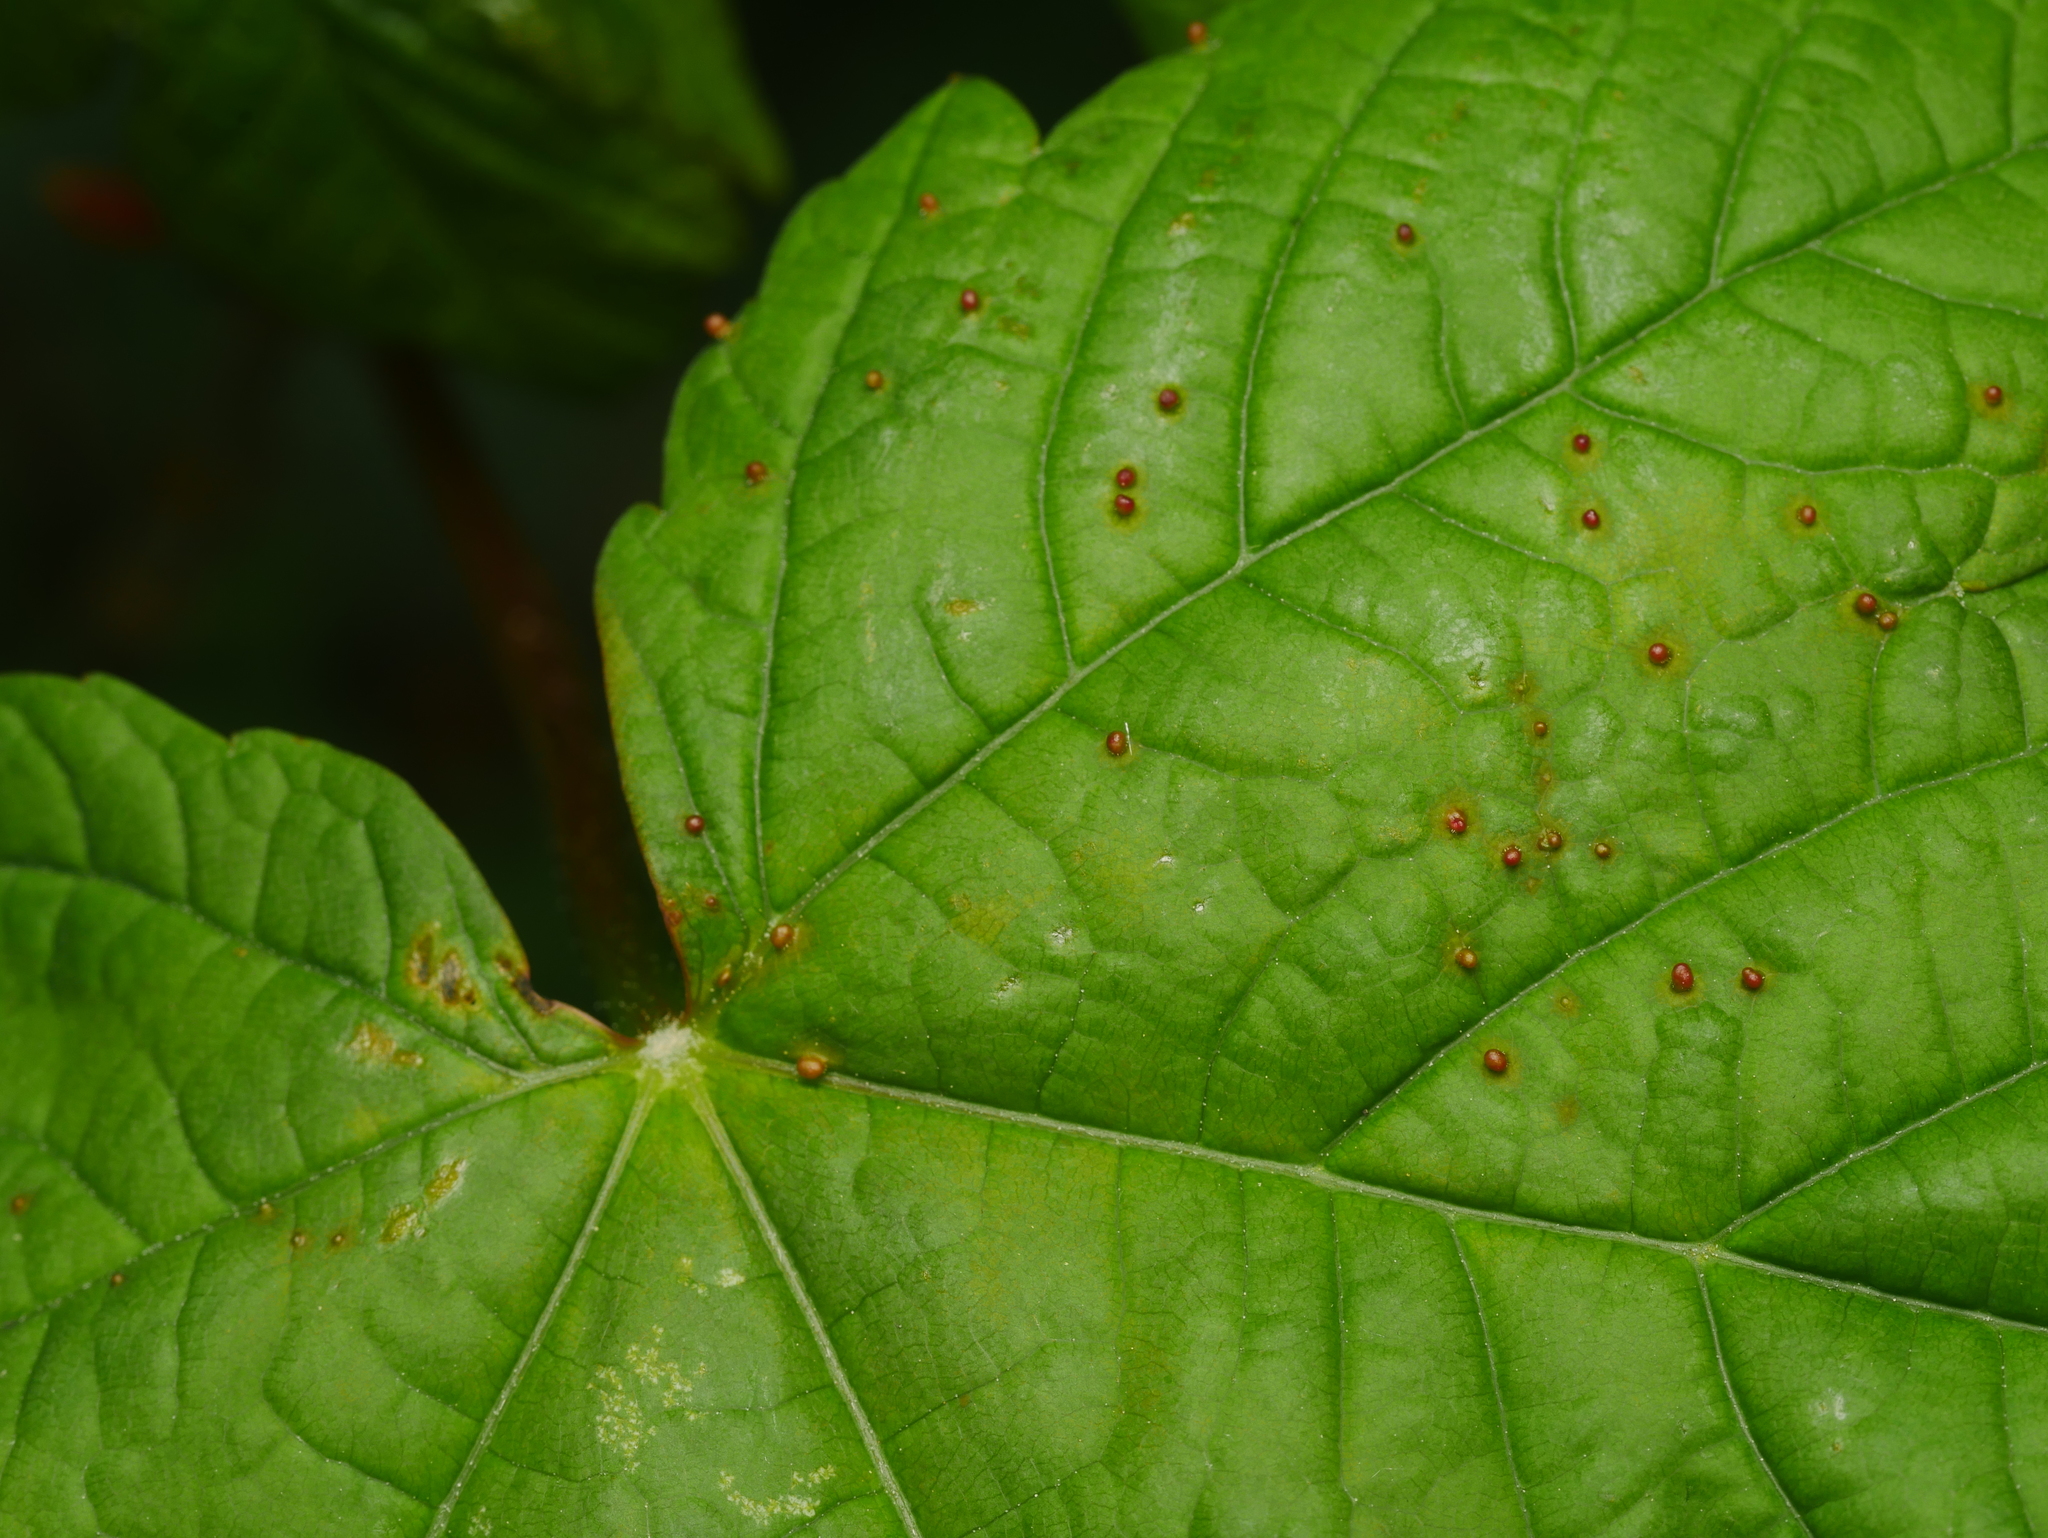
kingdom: Animalia
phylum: Arthropoda
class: Arachnida
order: Trombidiformes
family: Eriophyidae
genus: Aceria
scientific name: Aceria cephaloneus
